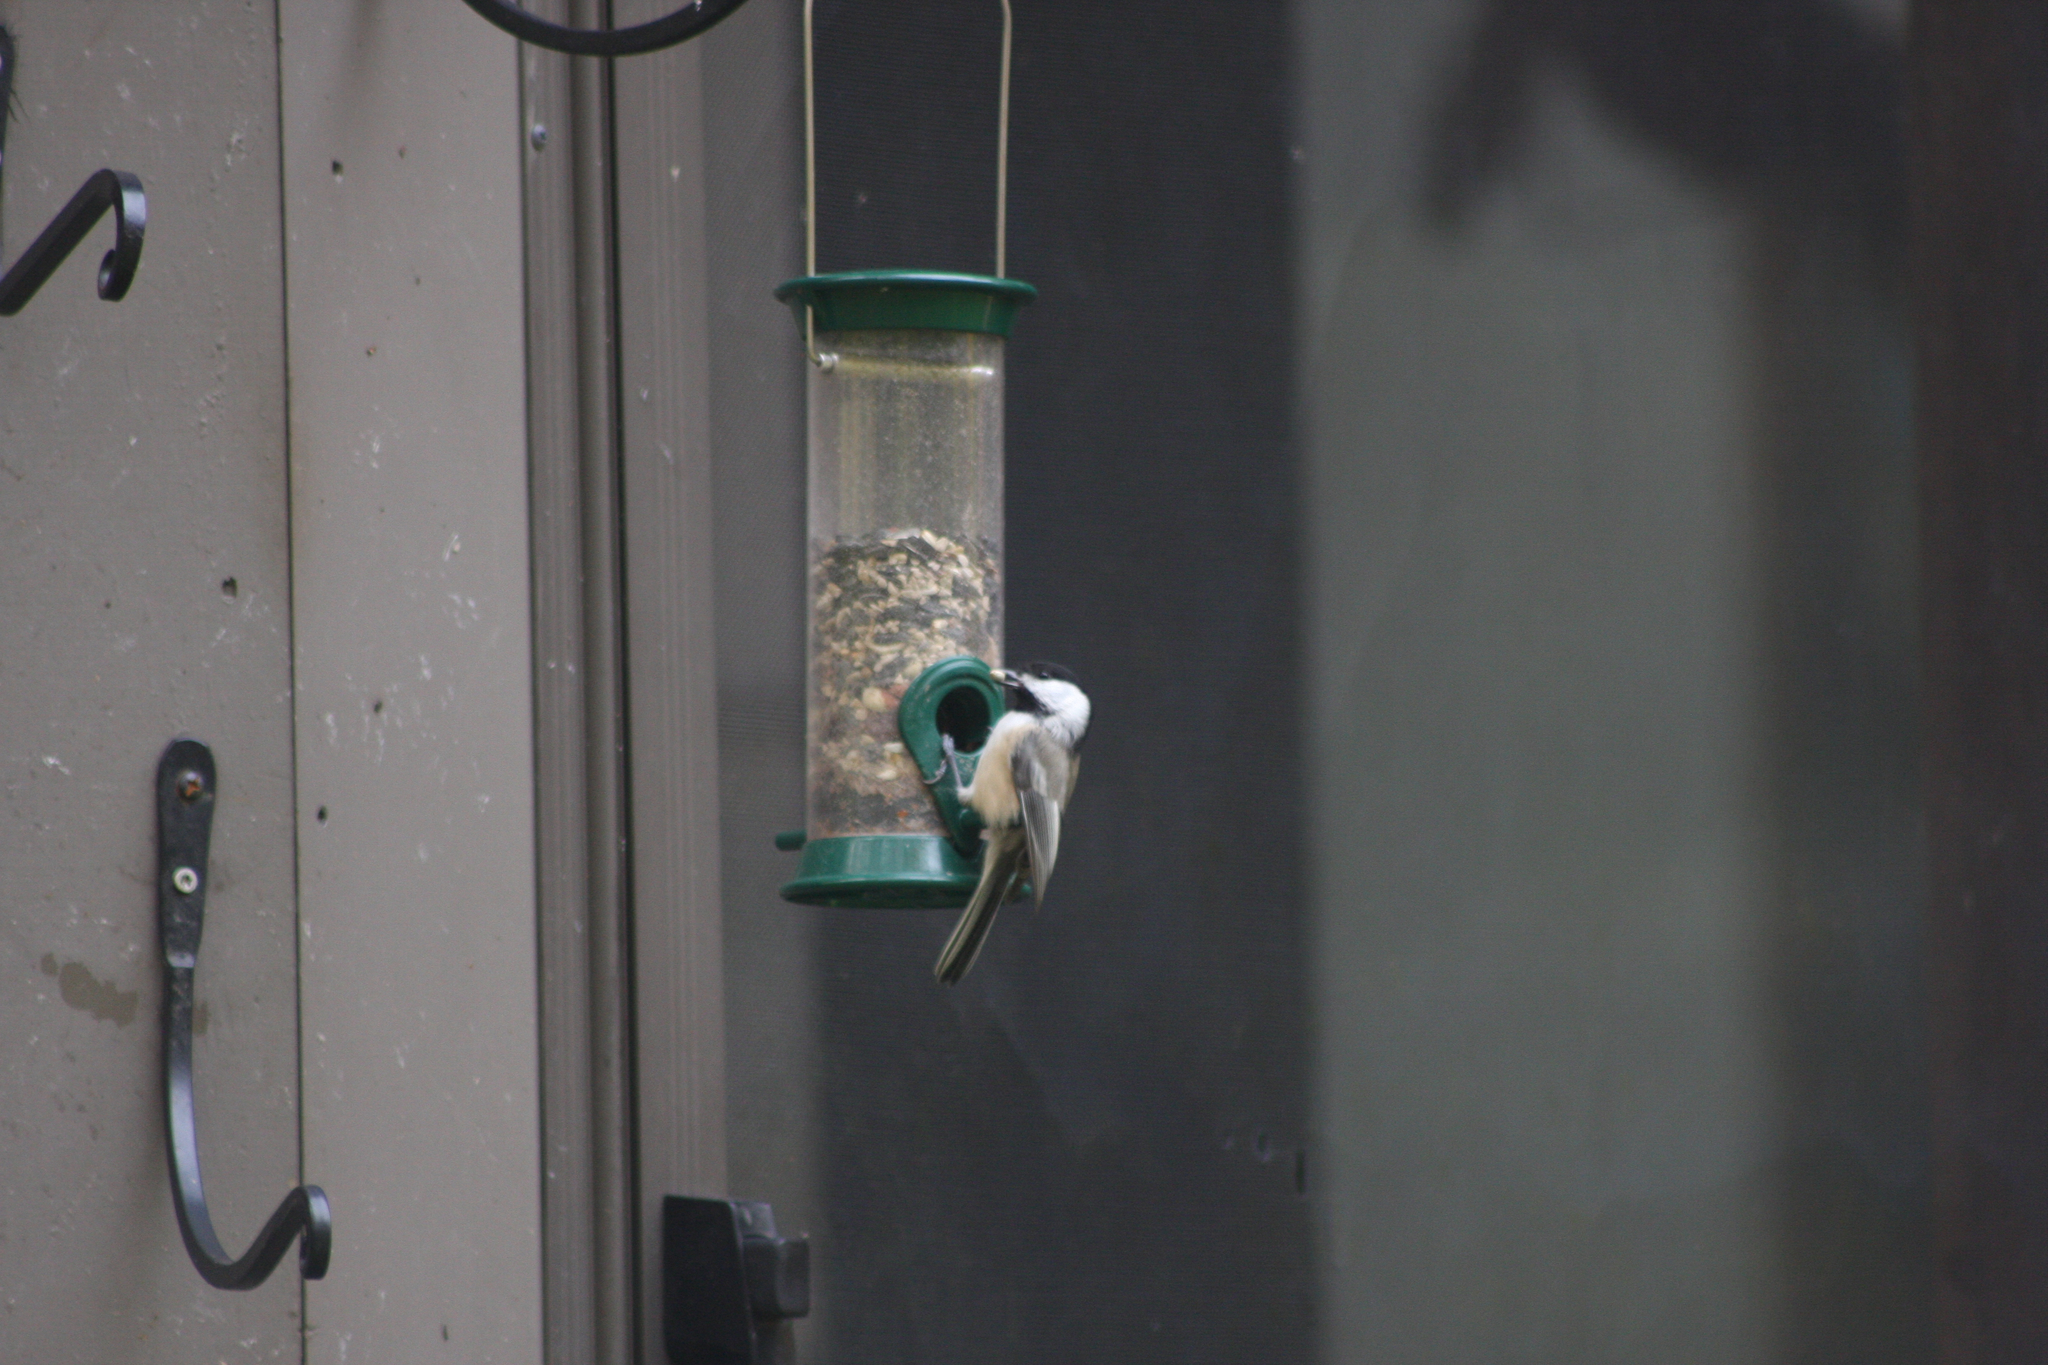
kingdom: Animalia
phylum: Chordata
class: Aves
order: Passeriformes
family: Paridae
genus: Poecile
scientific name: Poecile atricapillus
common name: Black-capped chickadee
